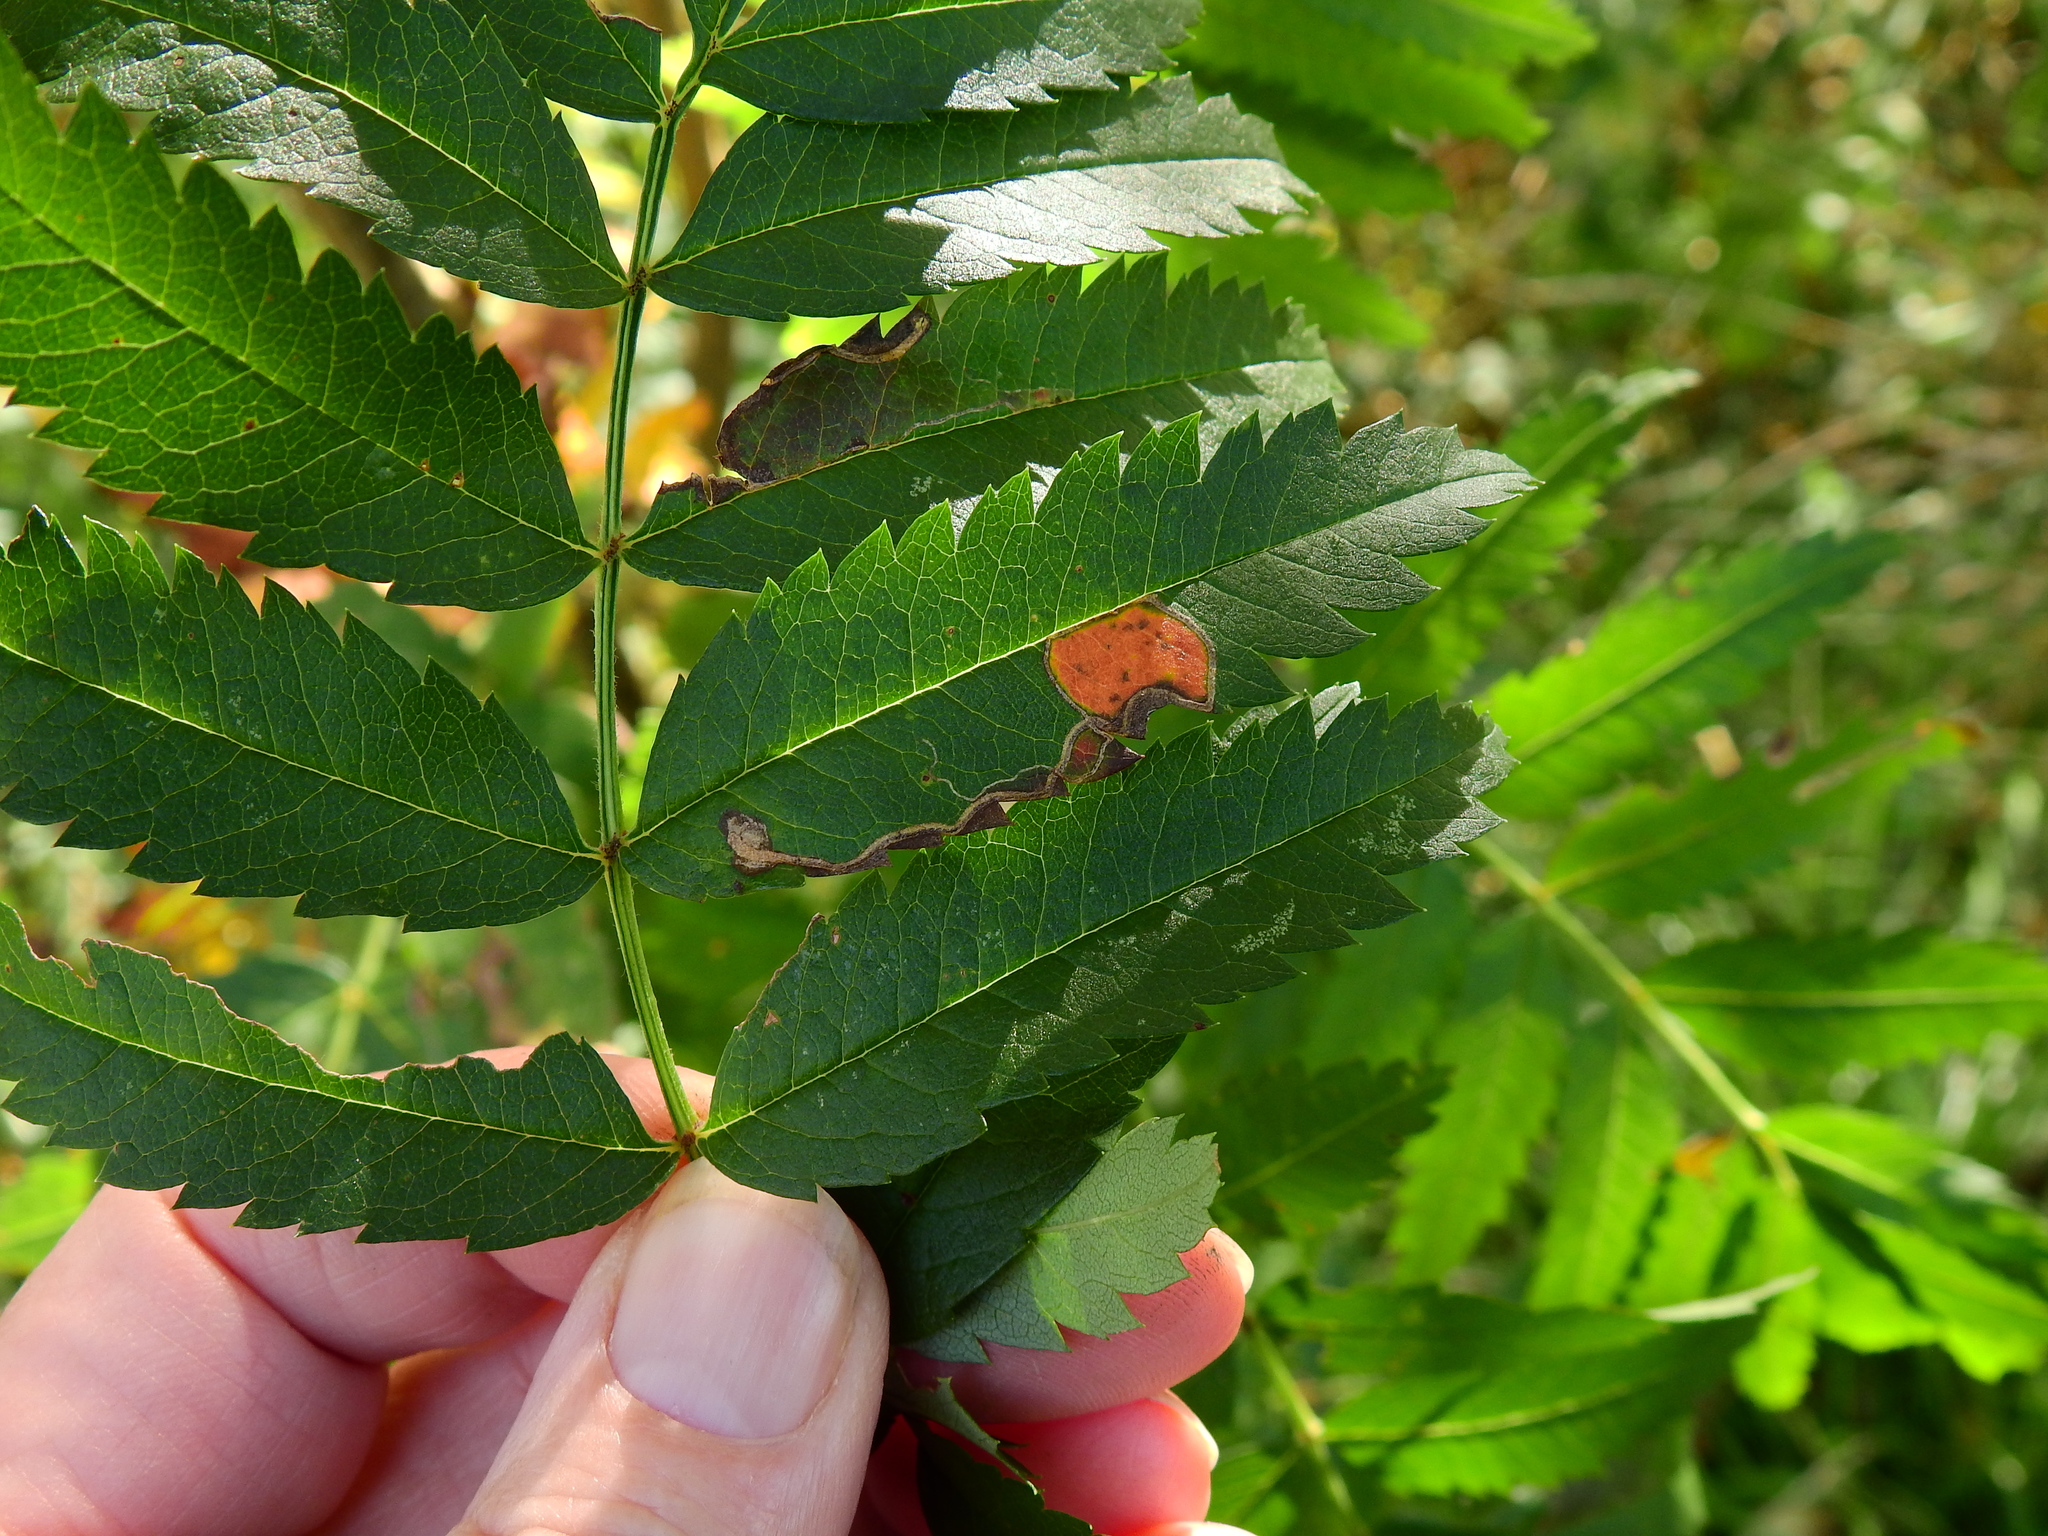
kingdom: Animalia
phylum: Arthropoda
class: Insecta
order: Lepidoptera
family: Lyonetiidae
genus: Lyonetia
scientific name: Lyonetia clerkella
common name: Apple leaf miner
